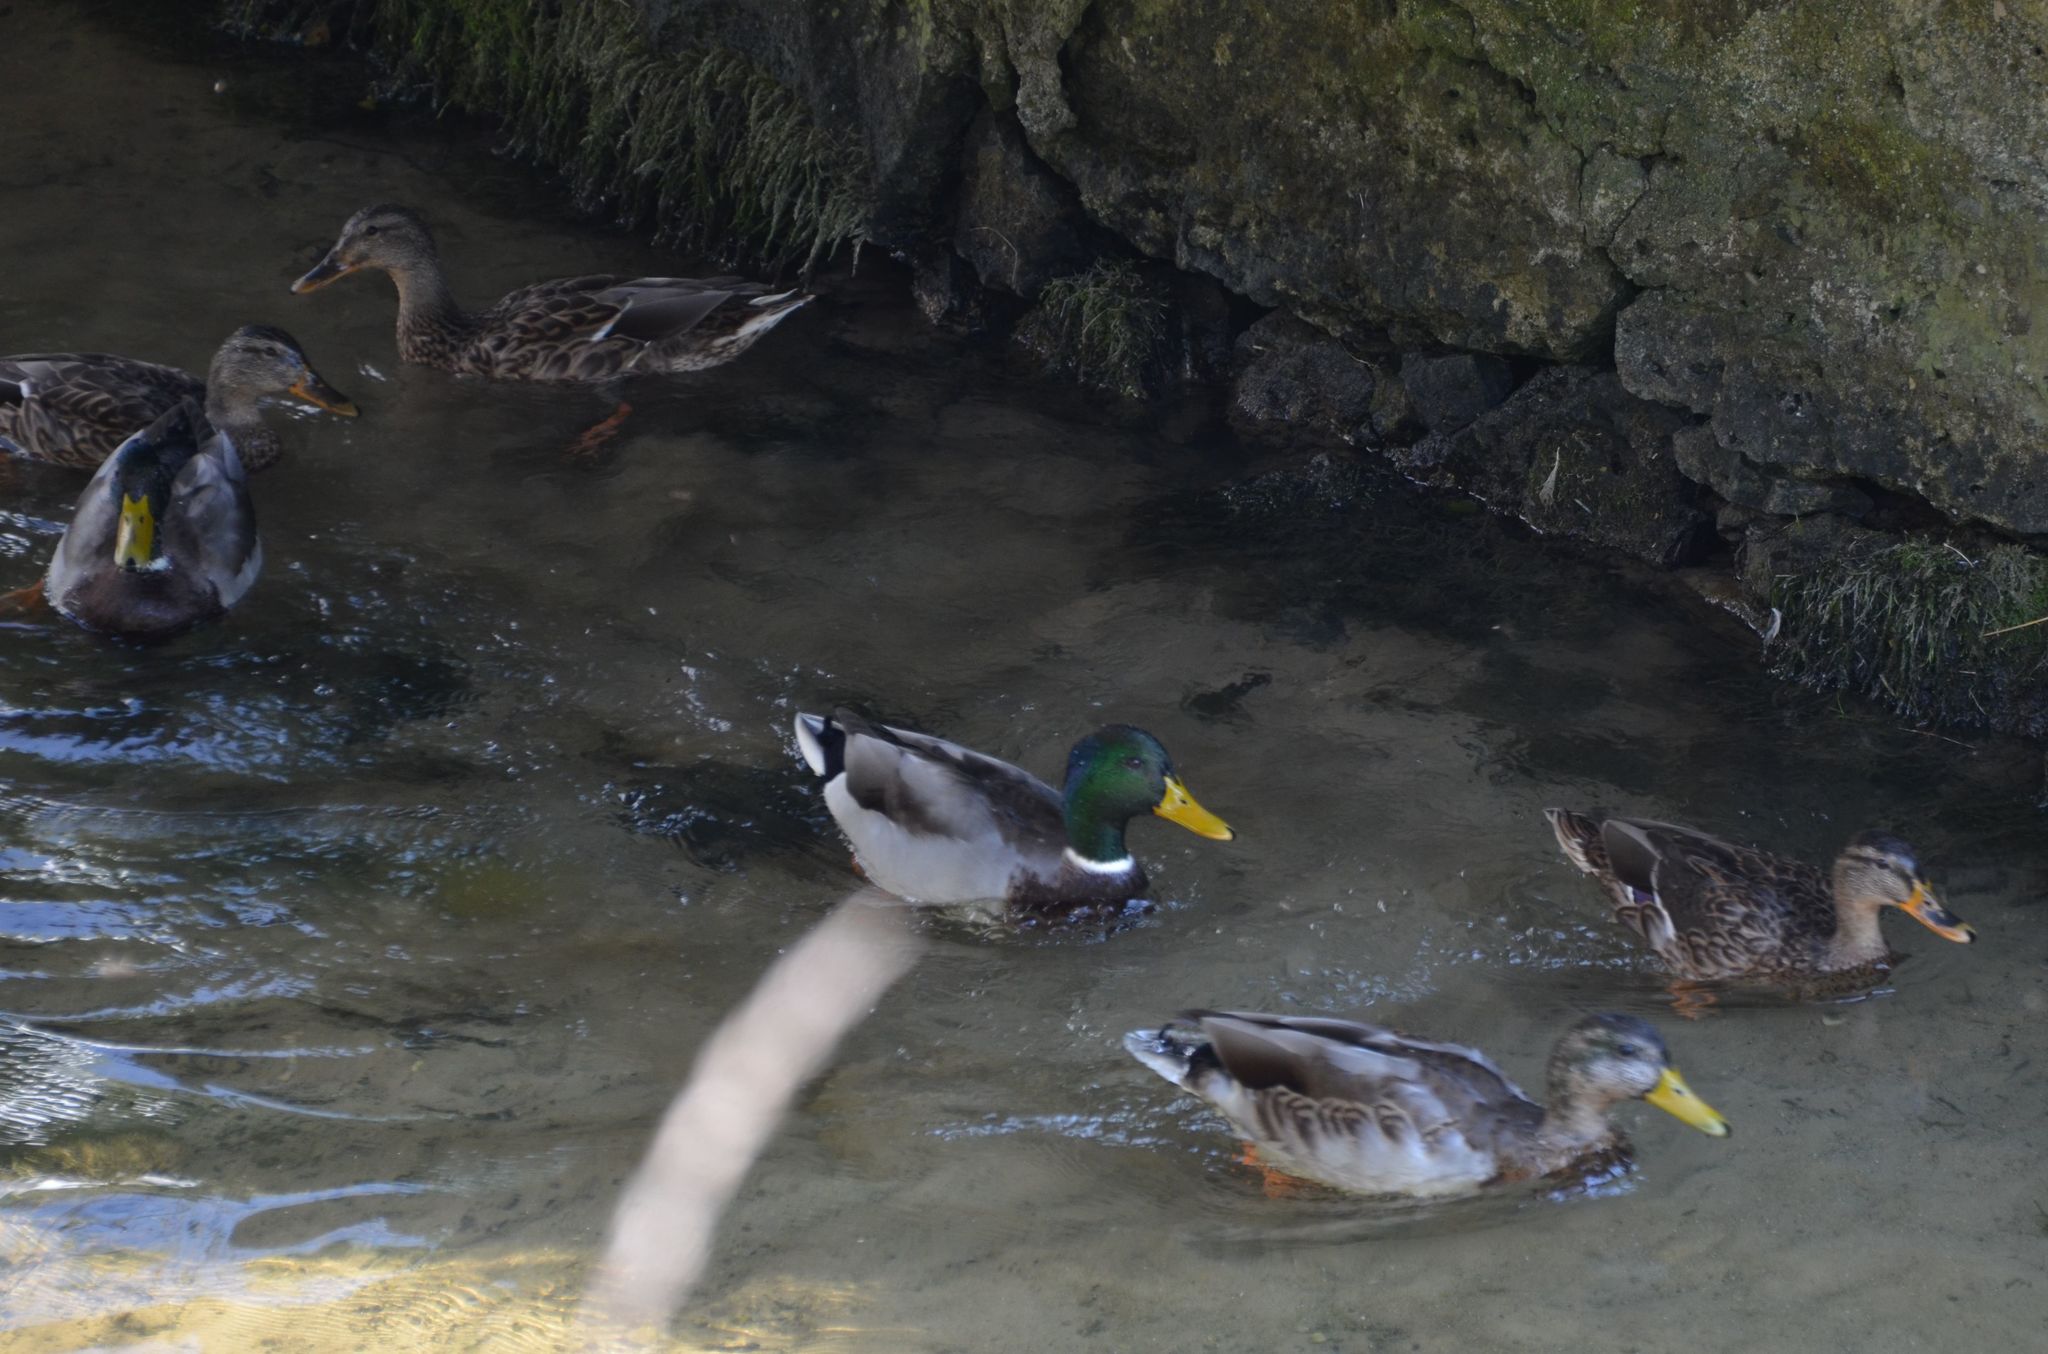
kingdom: Animalia
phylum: Chordata
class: Aves
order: Anseriformes
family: Anatidae
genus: Anas
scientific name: Anas platyrhynchos
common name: Mallard
